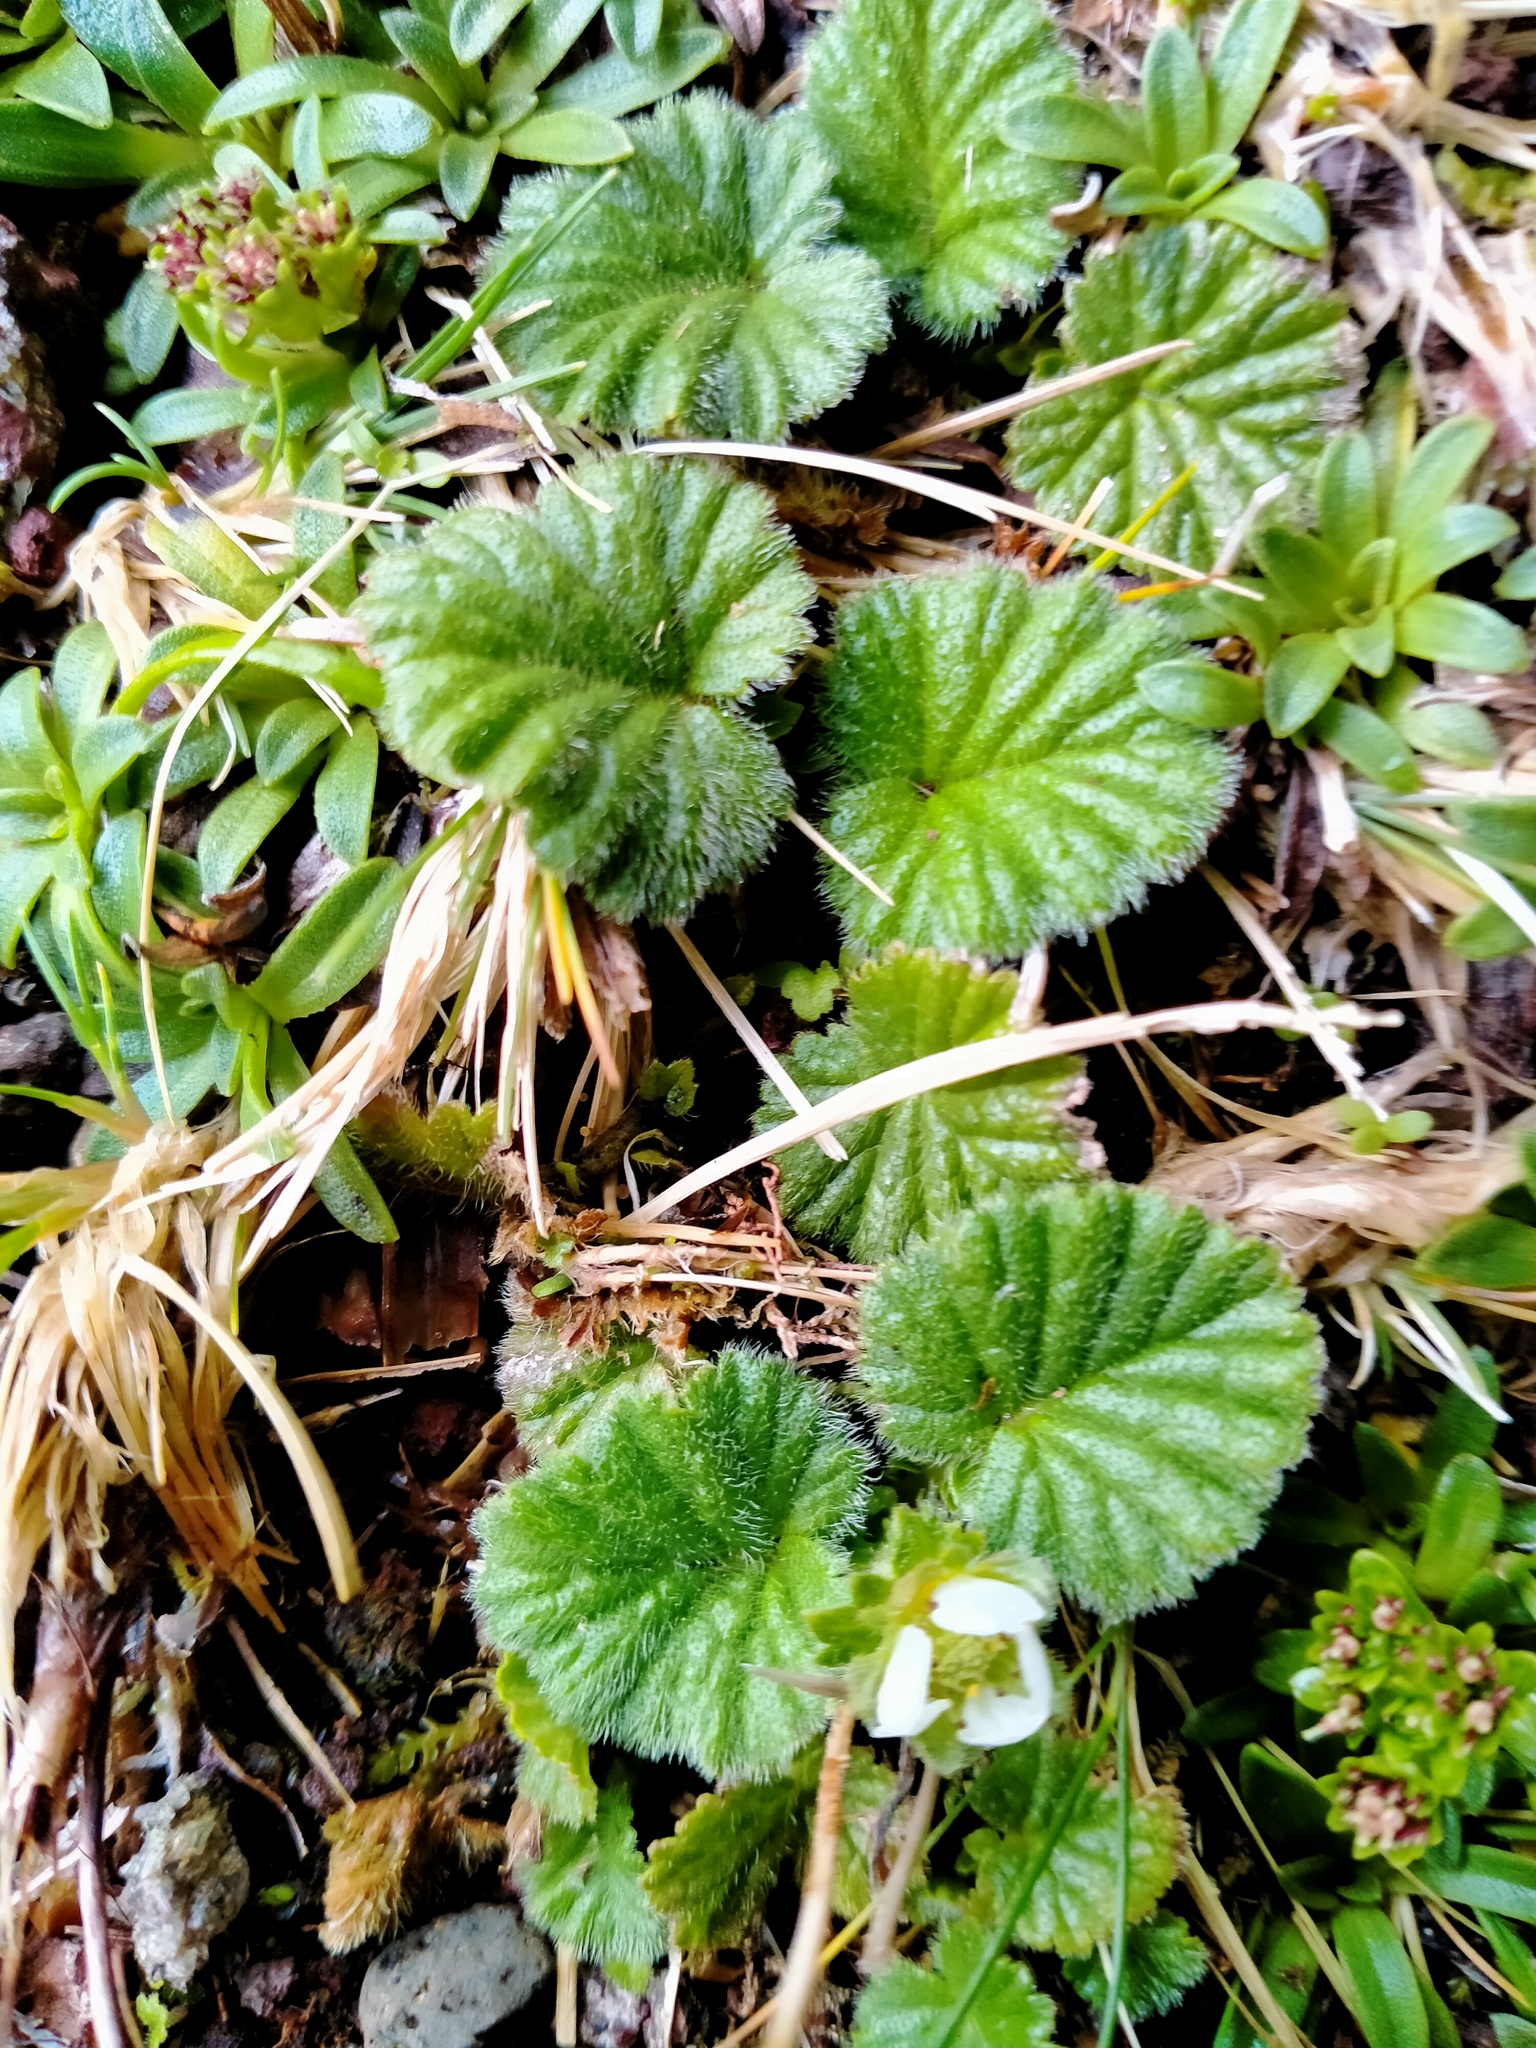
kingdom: Plantae
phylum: Tracheophyta
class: Magnoliopsida
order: Rosales
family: Rosaceae
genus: Geum
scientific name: Geum albiflorum
